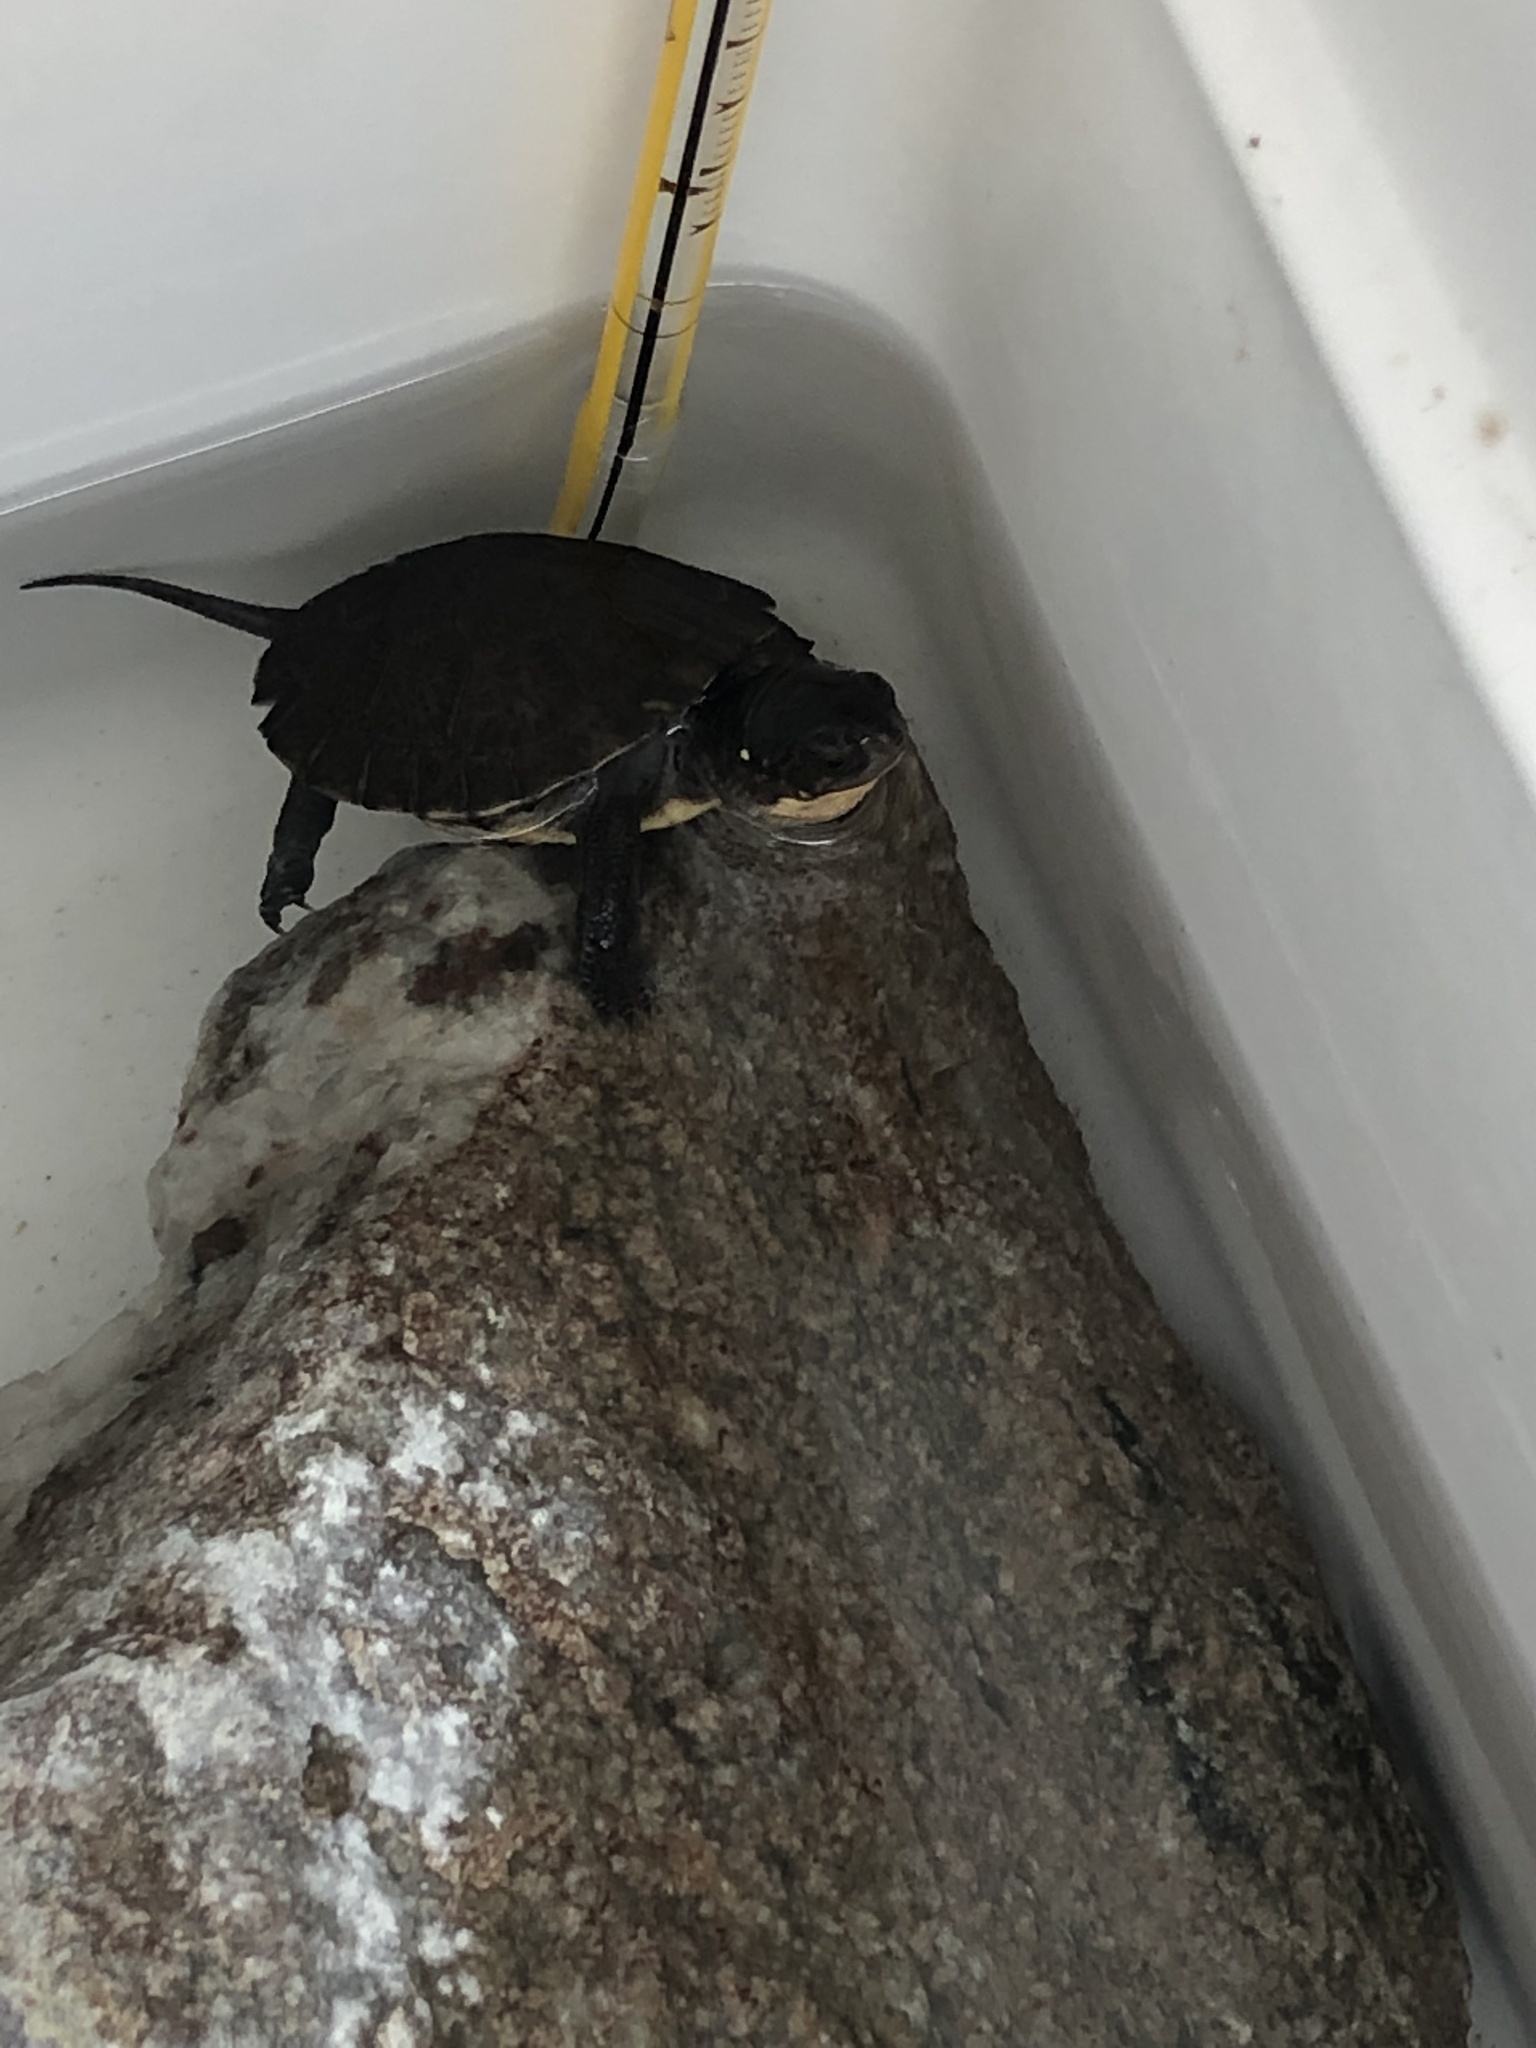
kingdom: Animalia
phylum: Chordata
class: Testudines
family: Emydidae
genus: Emys
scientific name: Emys blandingii
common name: Blanding's turtle
